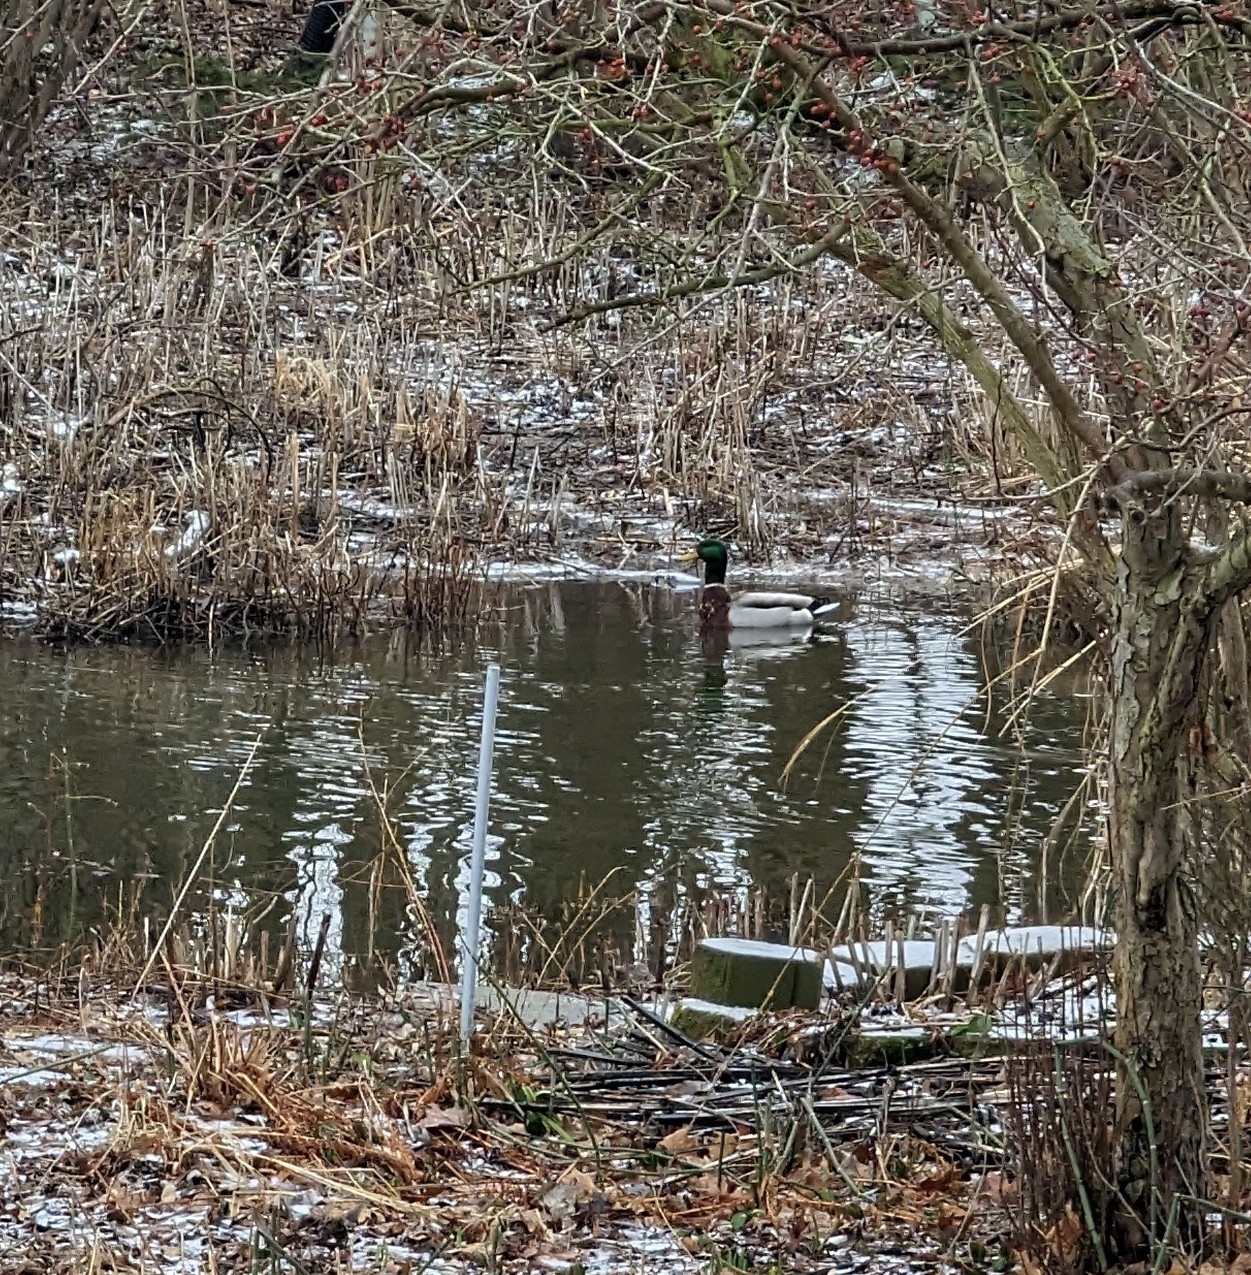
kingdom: Animalia
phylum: Chordata
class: Aves
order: Anseriformes
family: Anatidae
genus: Anas
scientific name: Anas platyrhynchos
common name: Mallard
